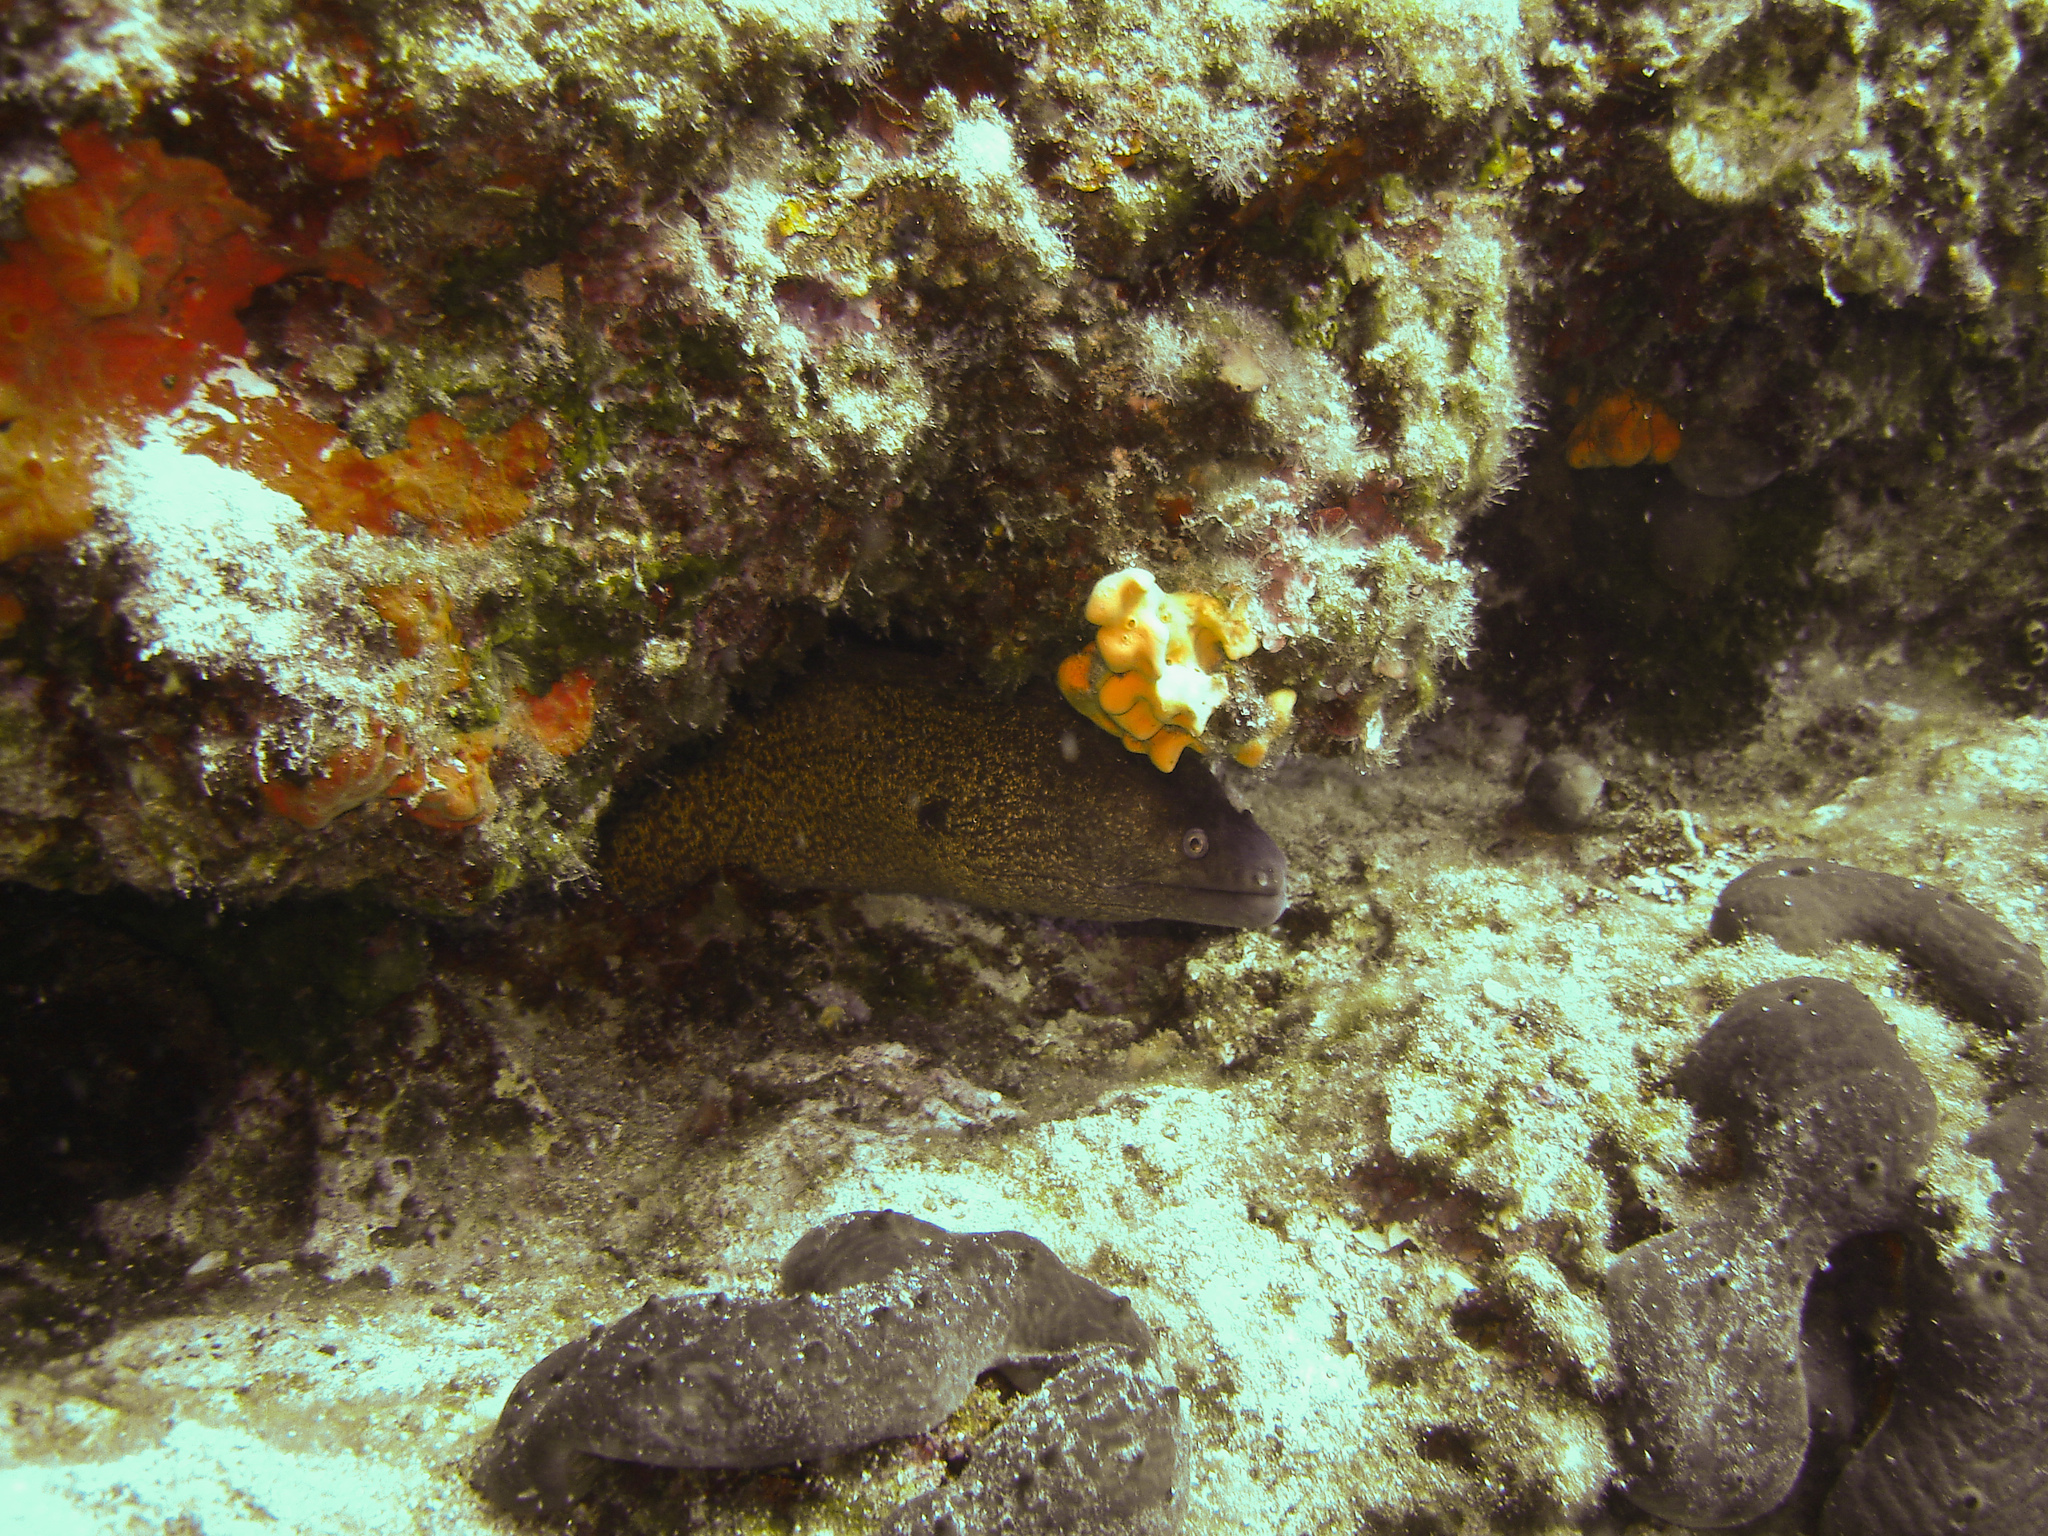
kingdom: Animalia
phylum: Chordata
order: Anguilliformes
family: Muraenidae
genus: Muraena
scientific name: Muraena helena
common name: Mediterranean moray
